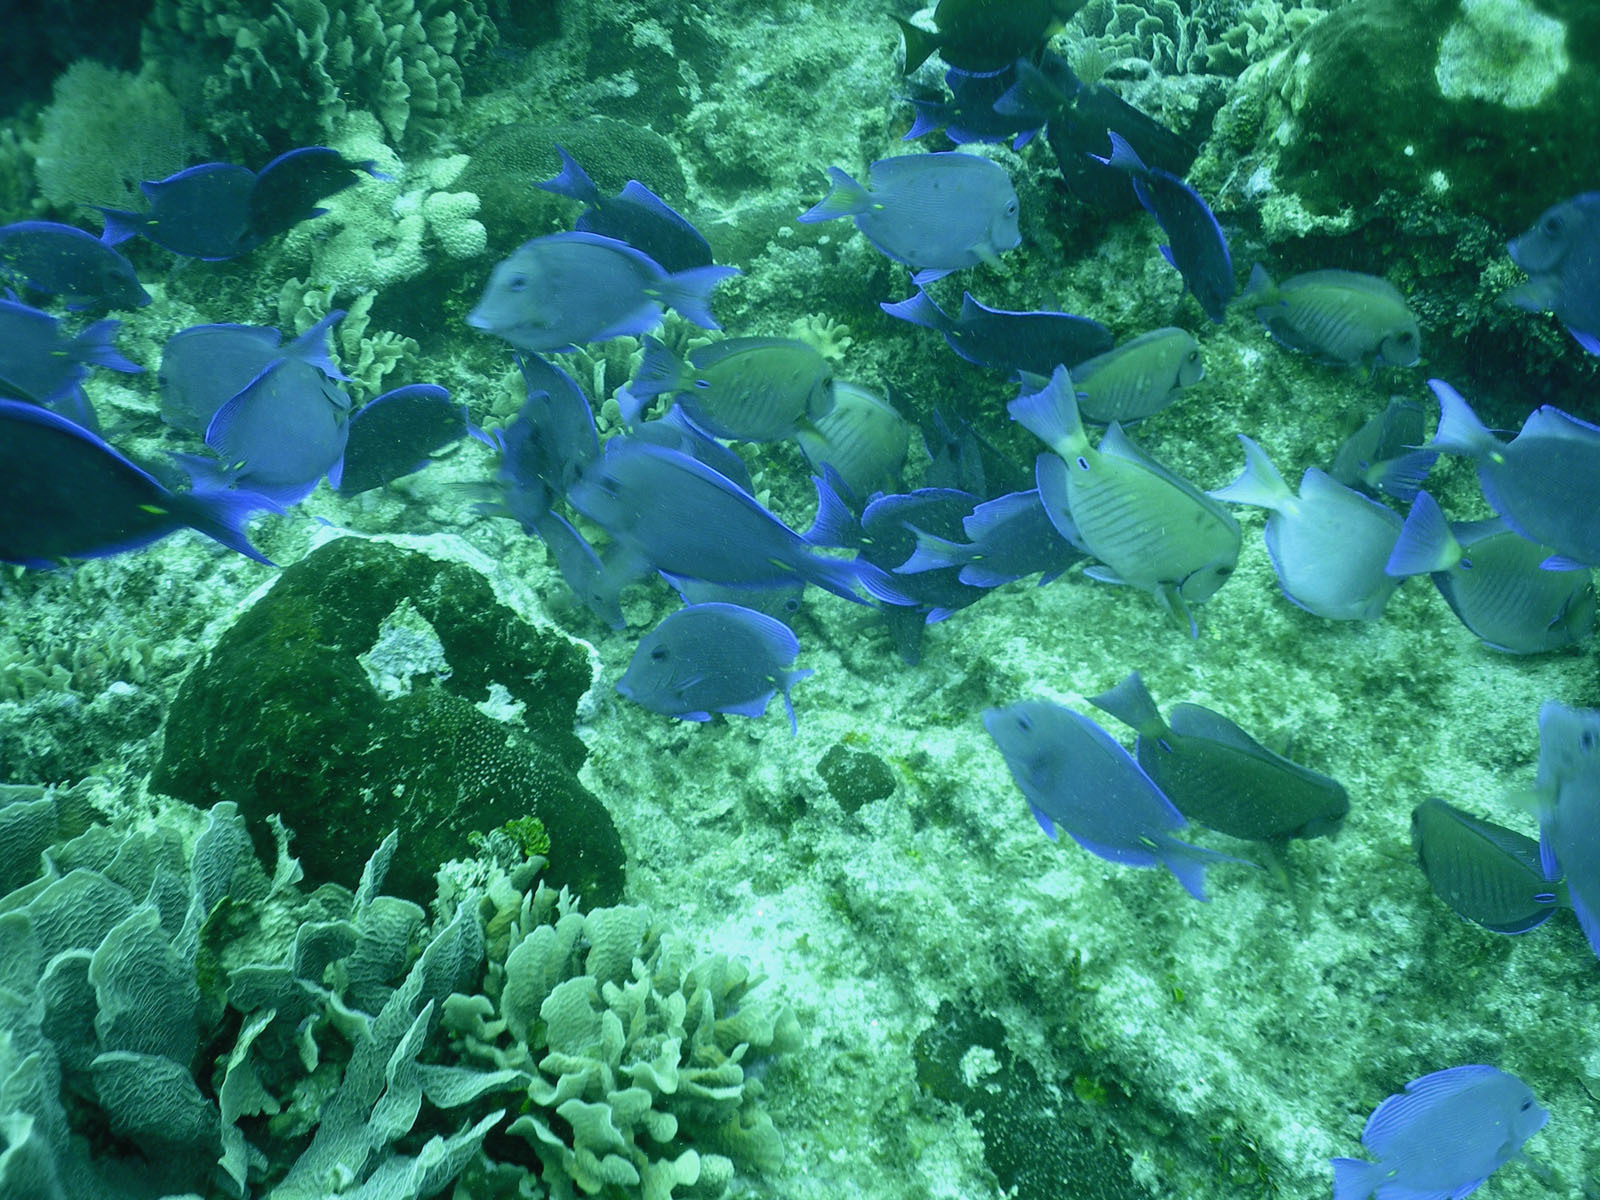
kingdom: Animalia
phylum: Chordata
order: Perciformes
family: Acanthuridae
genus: Acanthurus
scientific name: Acanthurus coeruleus
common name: Blue tang
